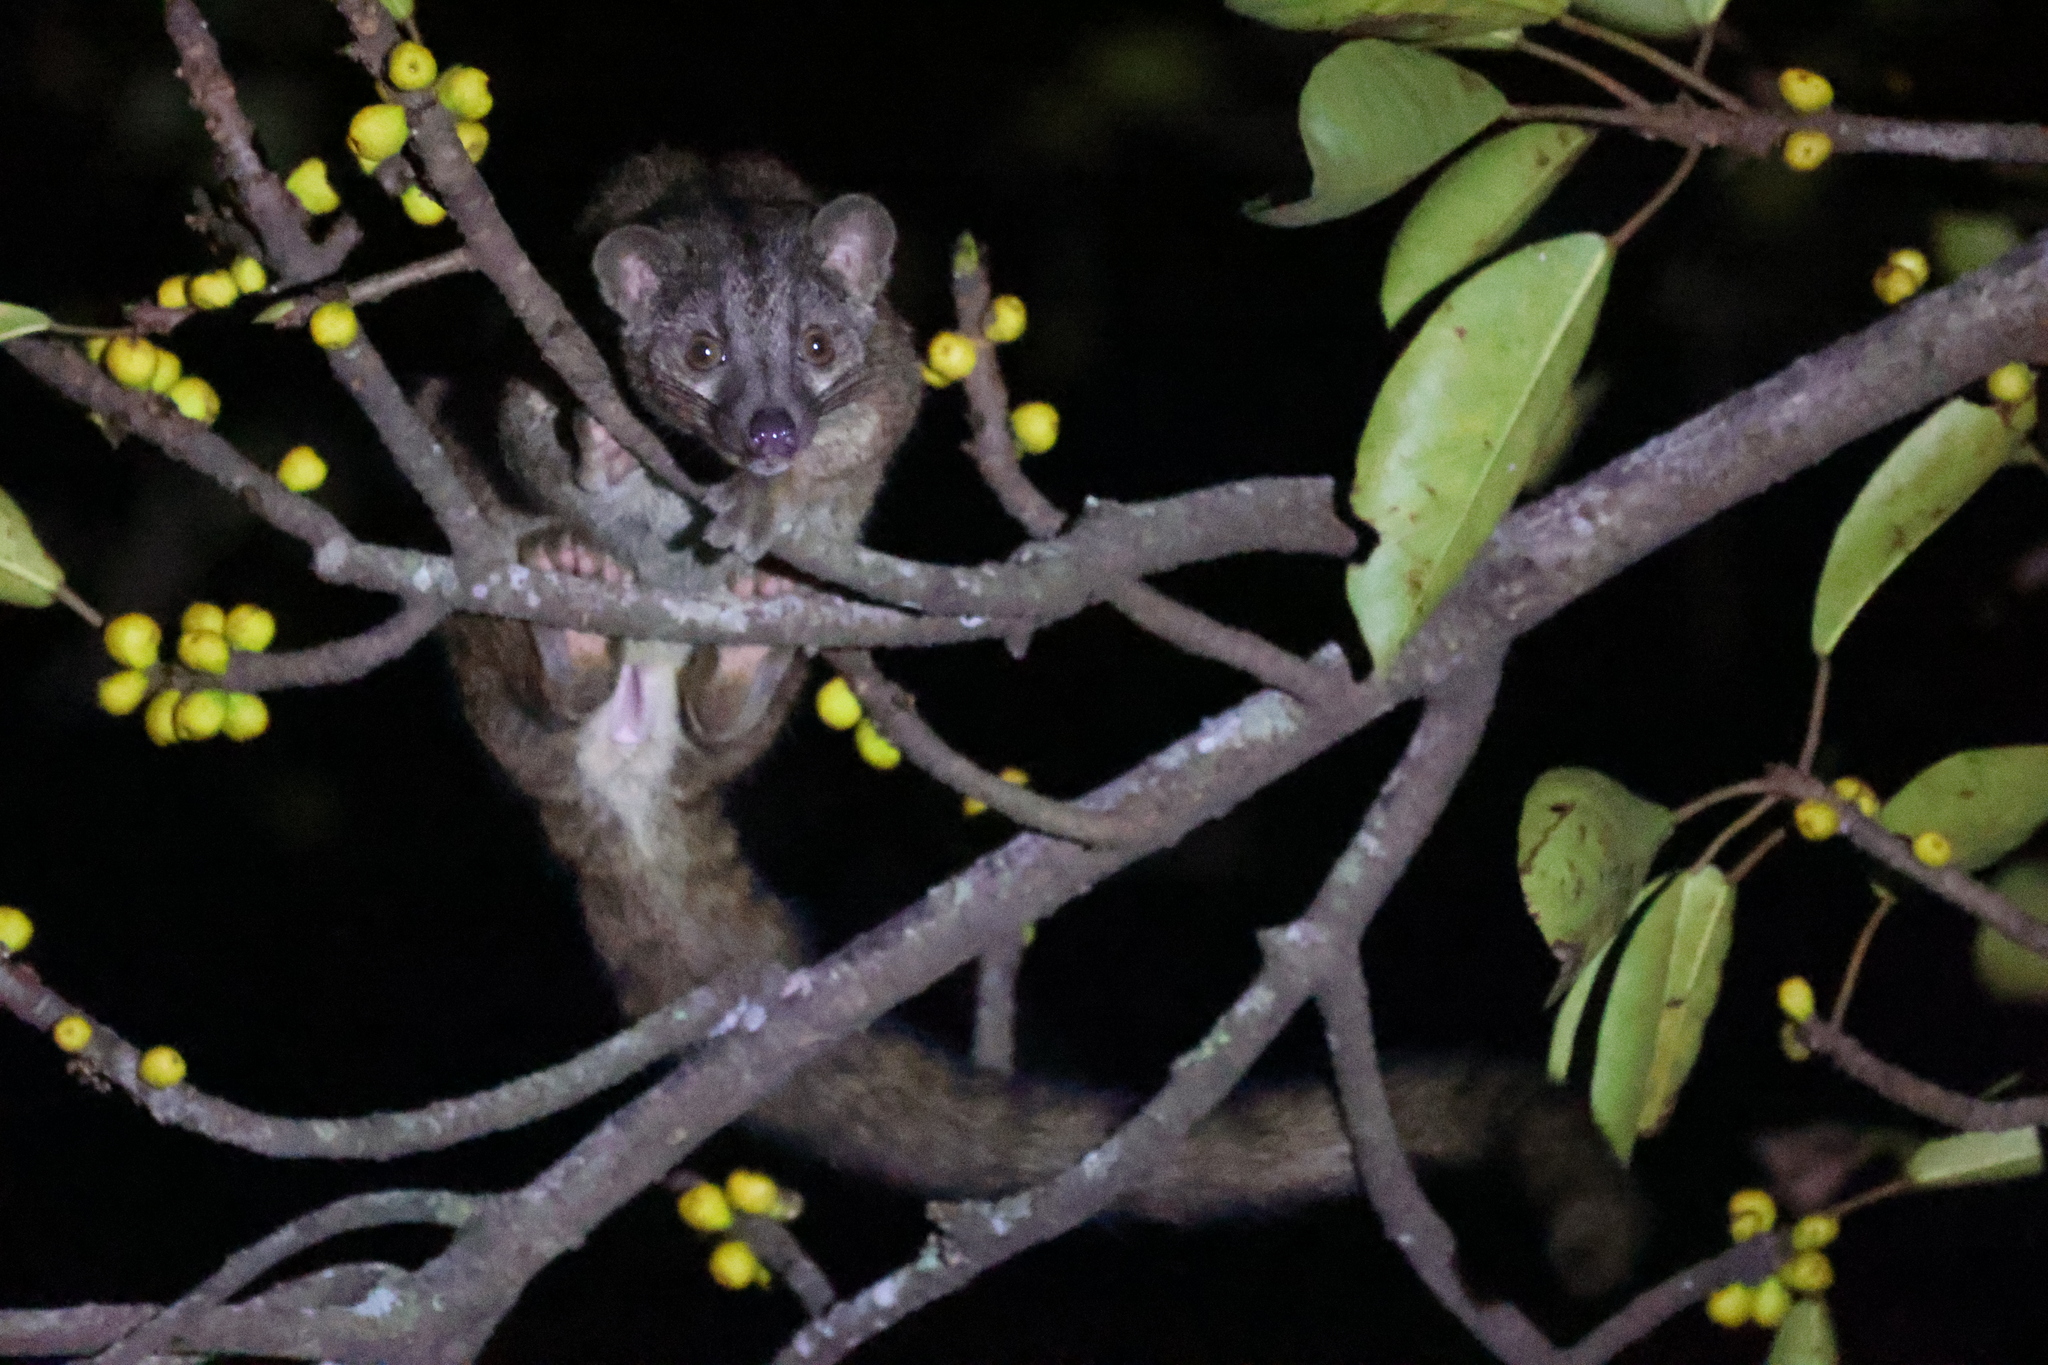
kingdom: Animalia
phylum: Chordata
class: Mammalia
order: Carnivora
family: Nandiniidae
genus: Nandinia
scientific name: Nandinia binotata
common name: African palm civet
